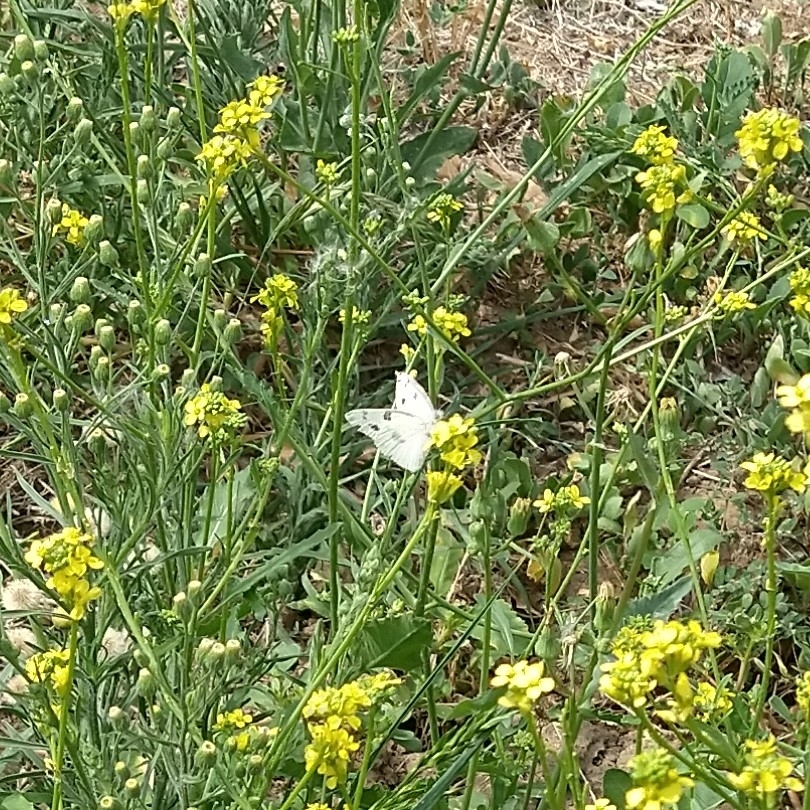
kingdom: Animalia
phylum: Arthropoda
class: Insecta
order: Lepidoptera
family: Pieridae
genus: Pontia
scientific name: Pontia protodice
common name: Checkered white
